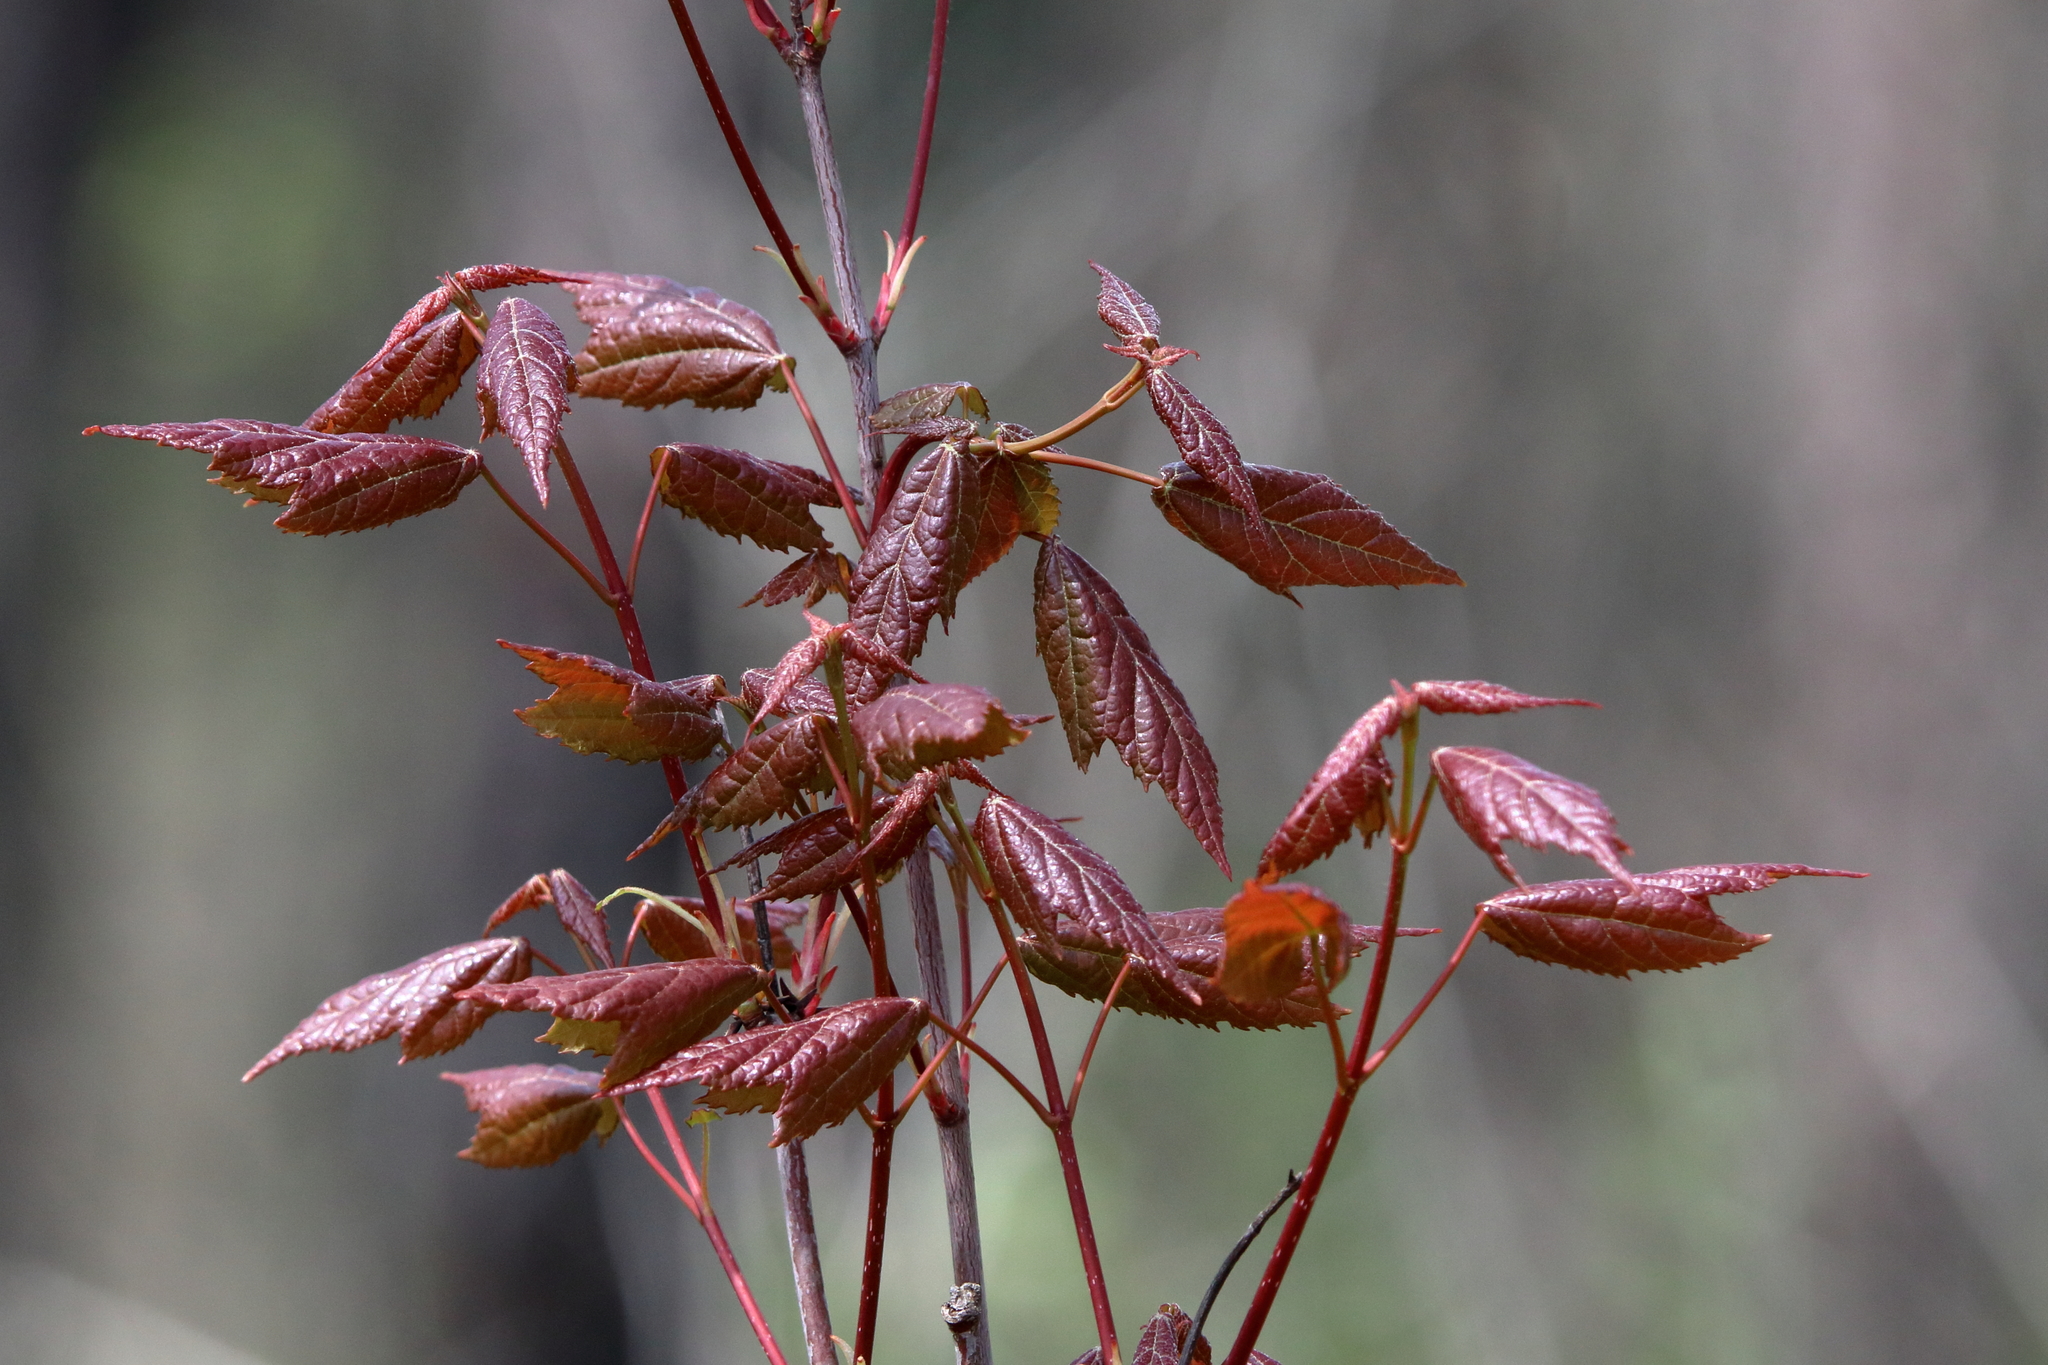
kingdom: Plantae
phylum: Tracheophyta
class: Magnoliopsida
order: Sapindales
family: Sapindaceae
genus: Acer
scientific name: Acer rubrum
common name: Red maple
